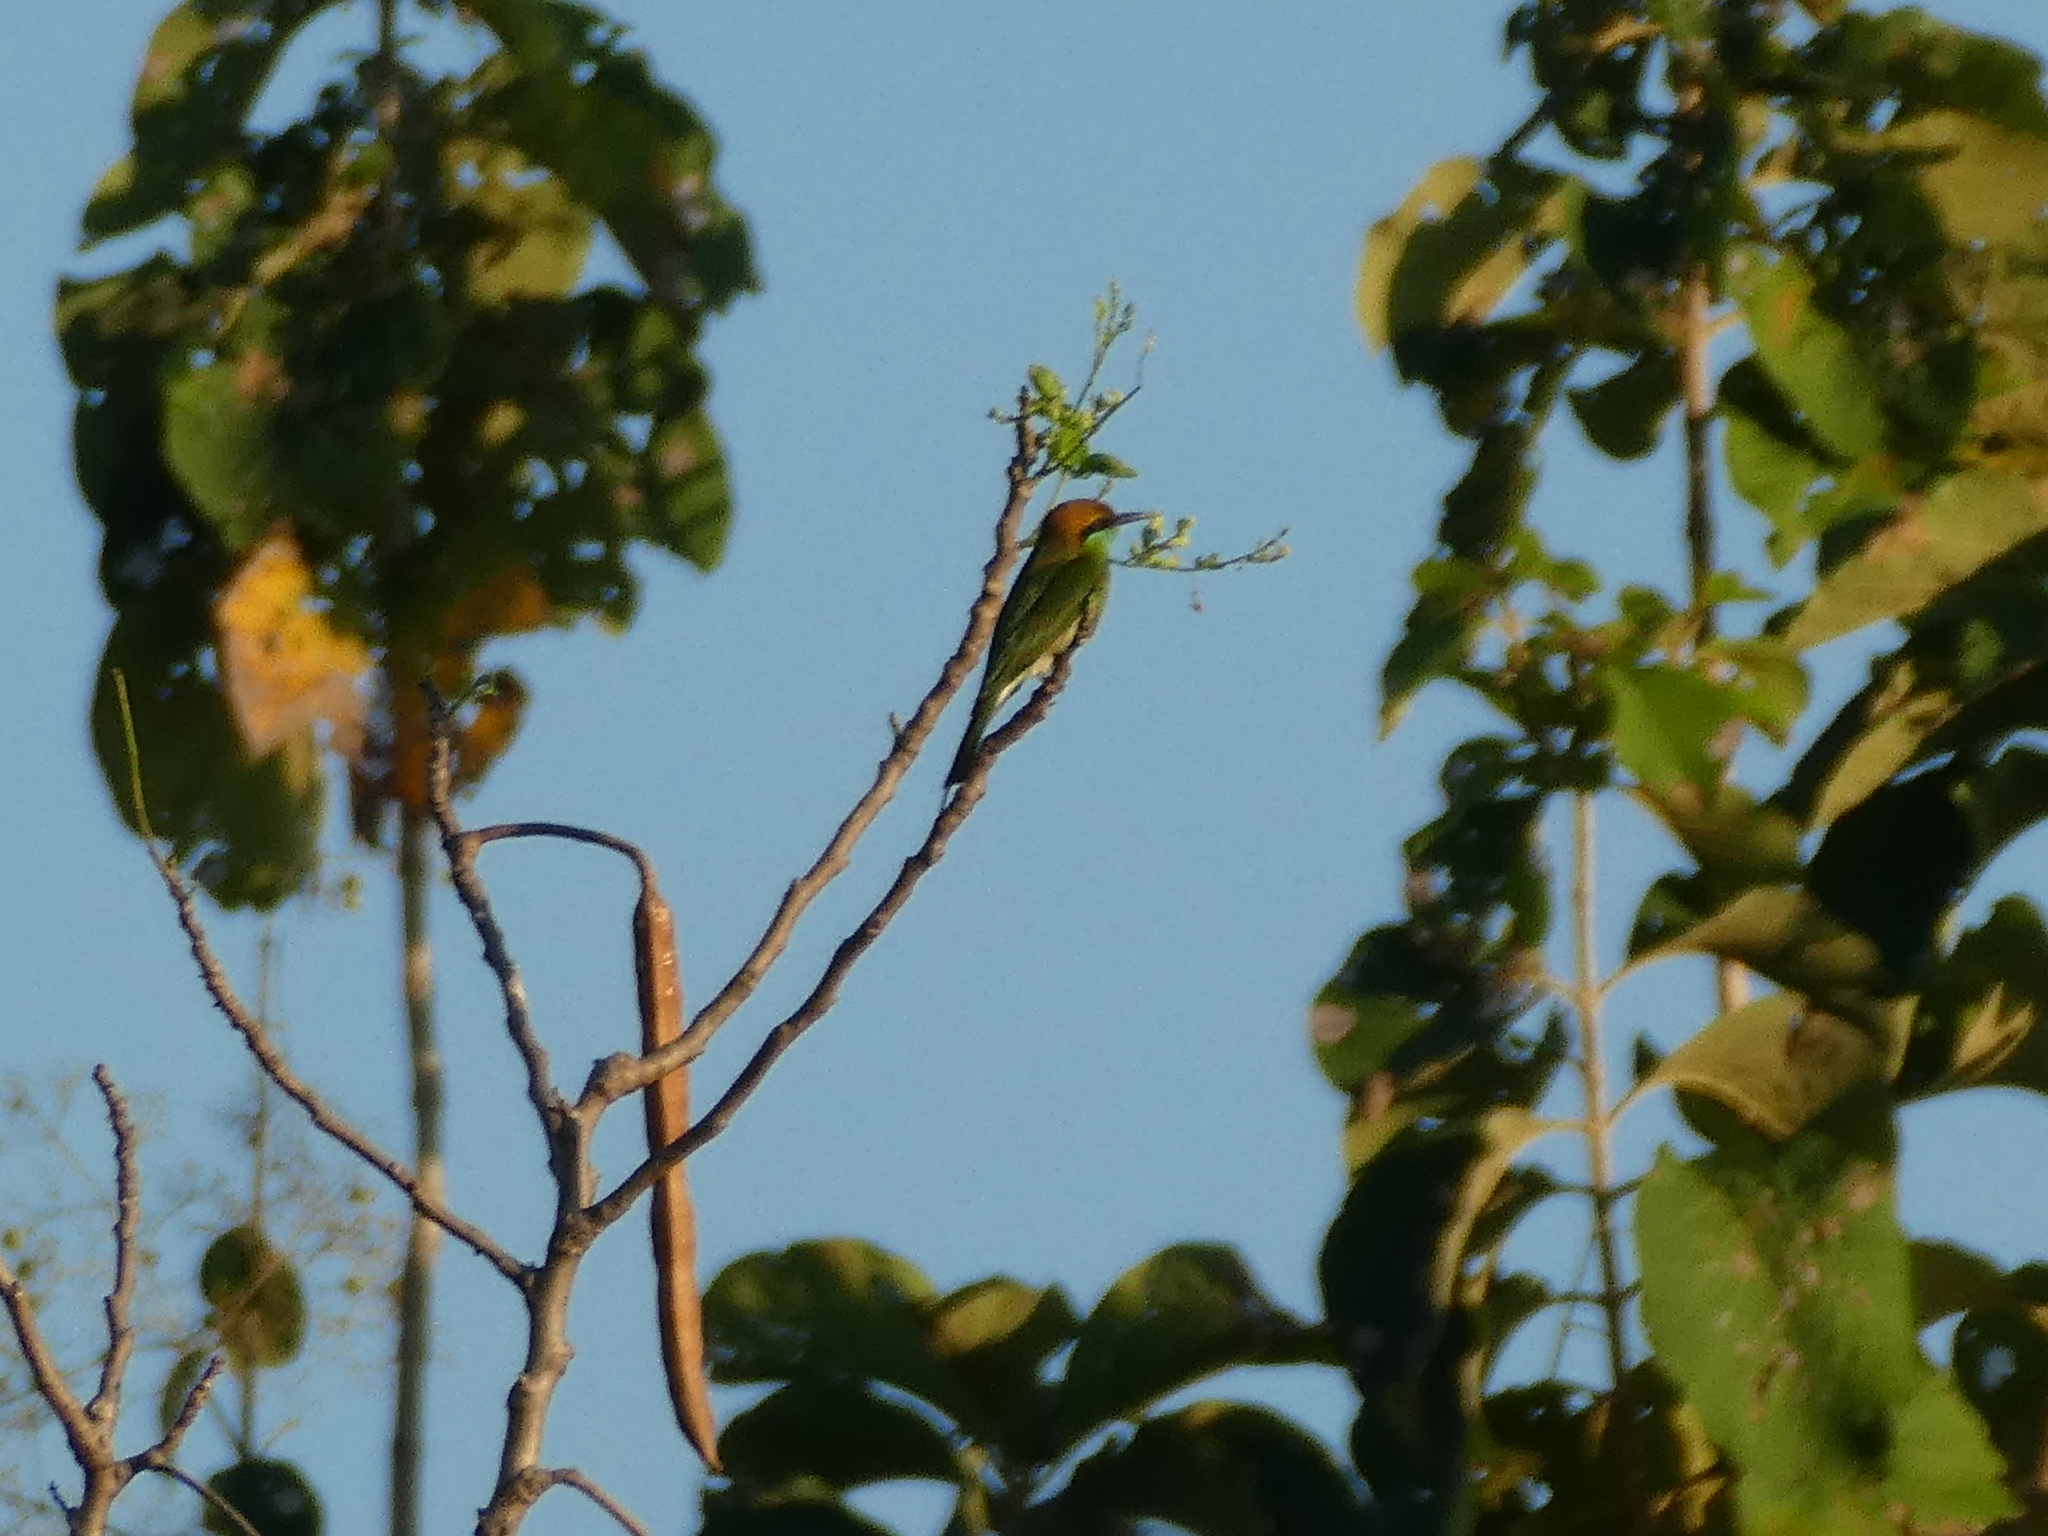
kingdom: Animalia
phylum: Chordata
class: Aves
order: Coraciiformes
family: Meropidae
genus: Merops
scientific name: Merops orientalis
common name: Green bee-eater
